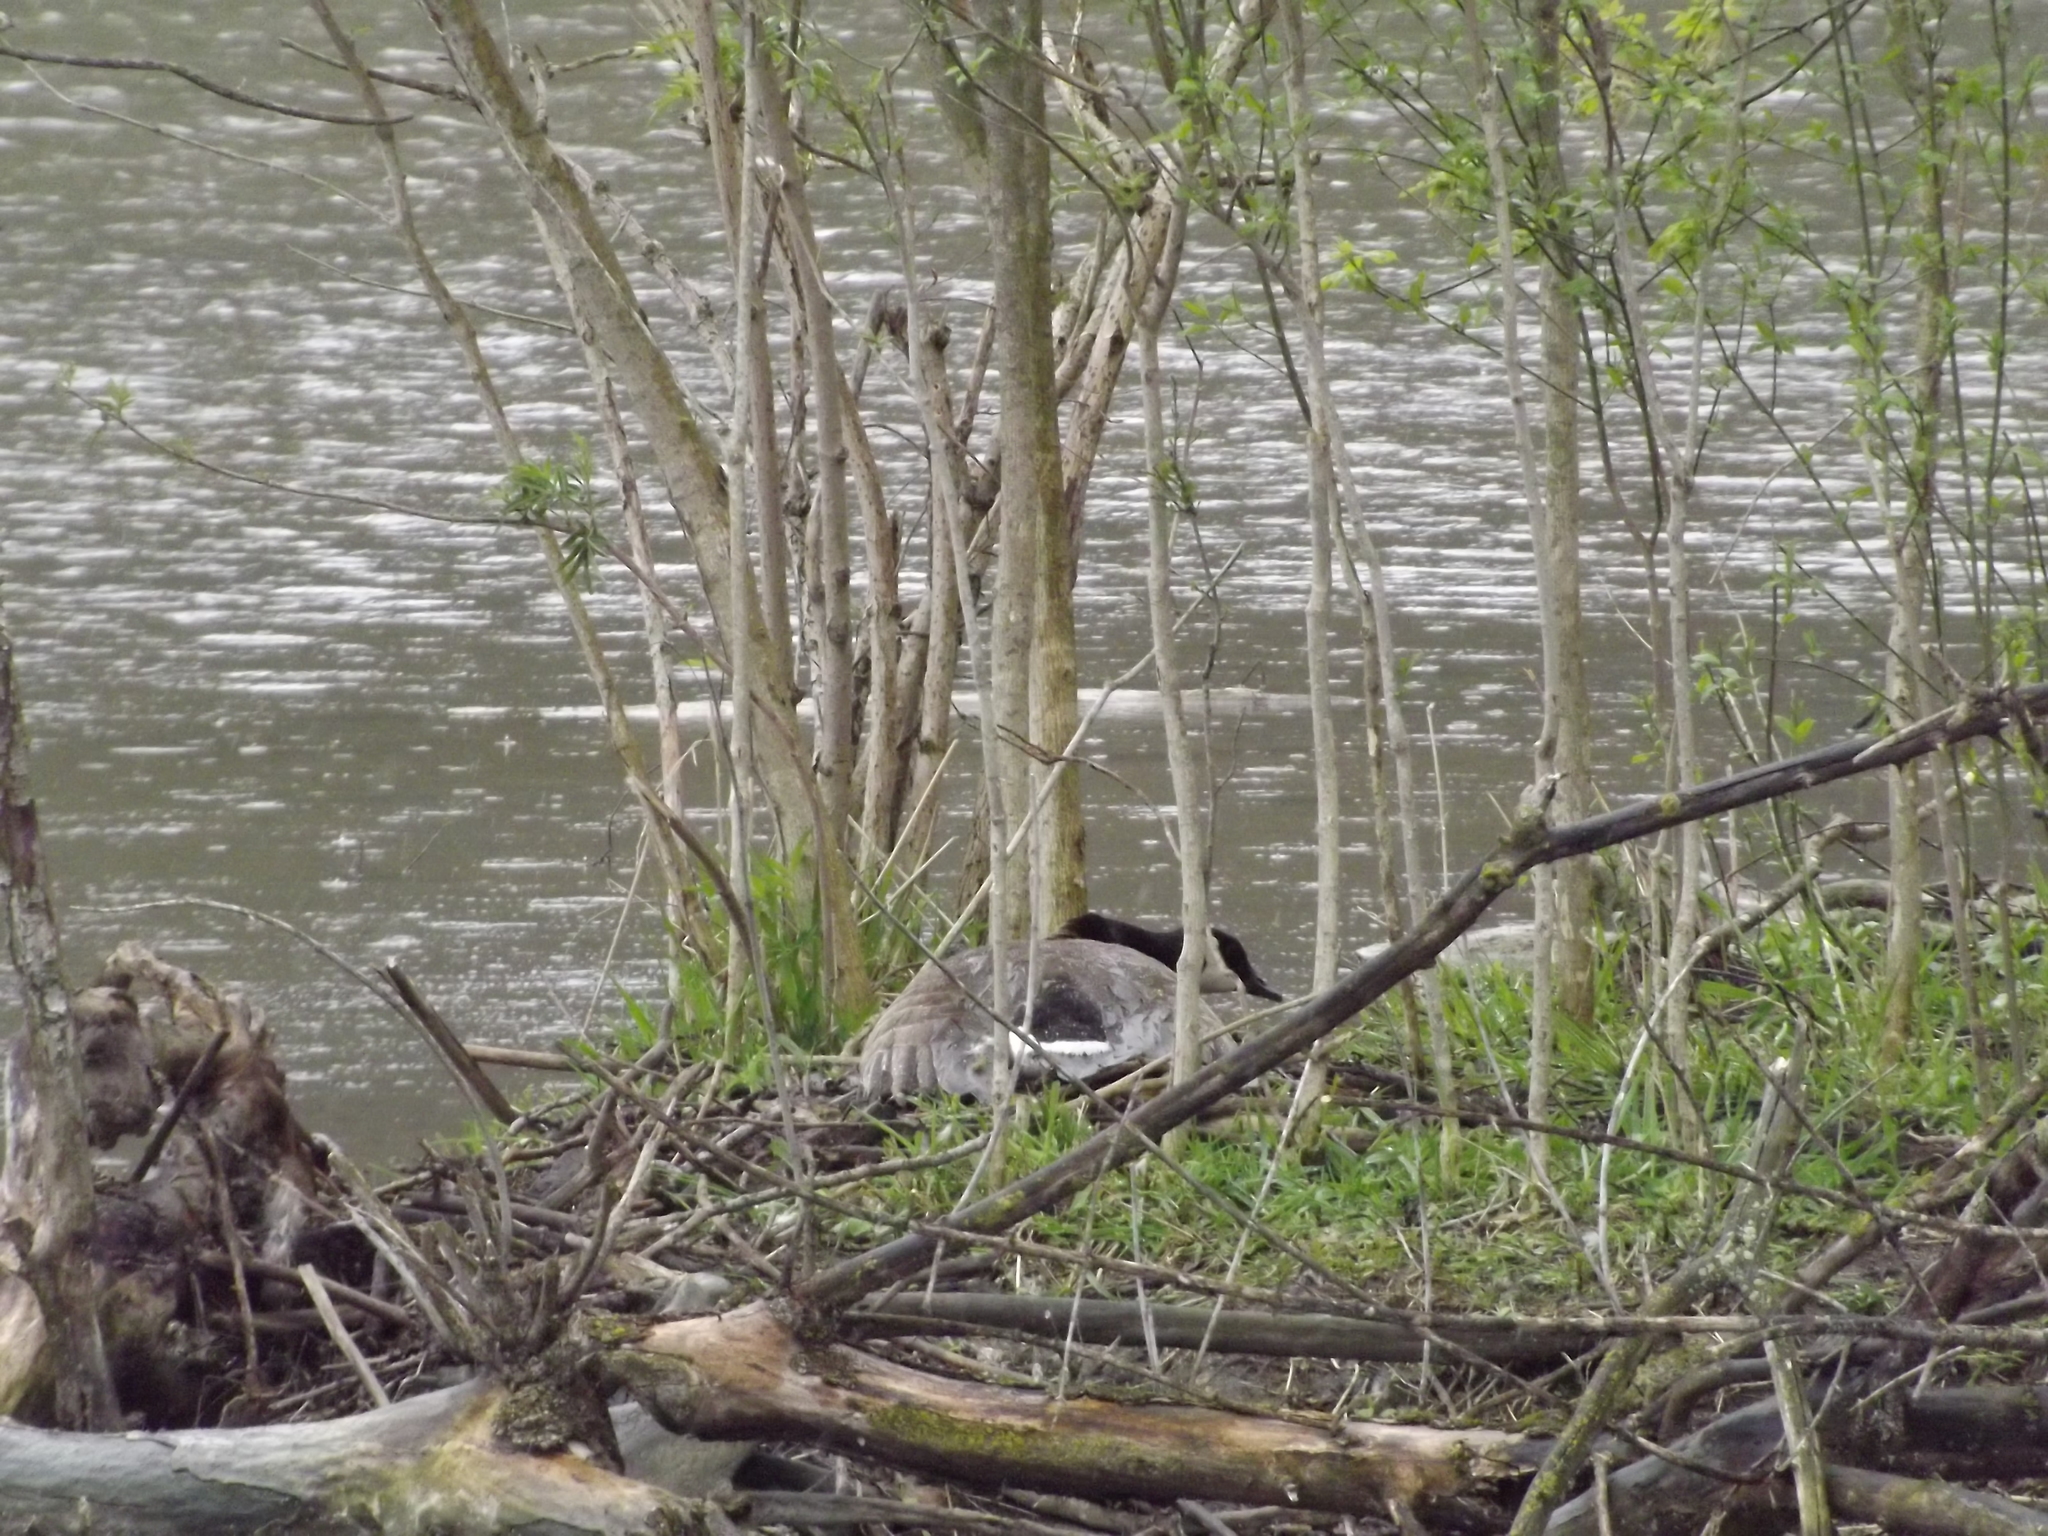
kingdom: Animalia
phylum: Chordata
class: Aves
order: Anseriformes
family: Anatidae
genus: Branta
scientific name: Branta canadensis
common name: Canada goose
